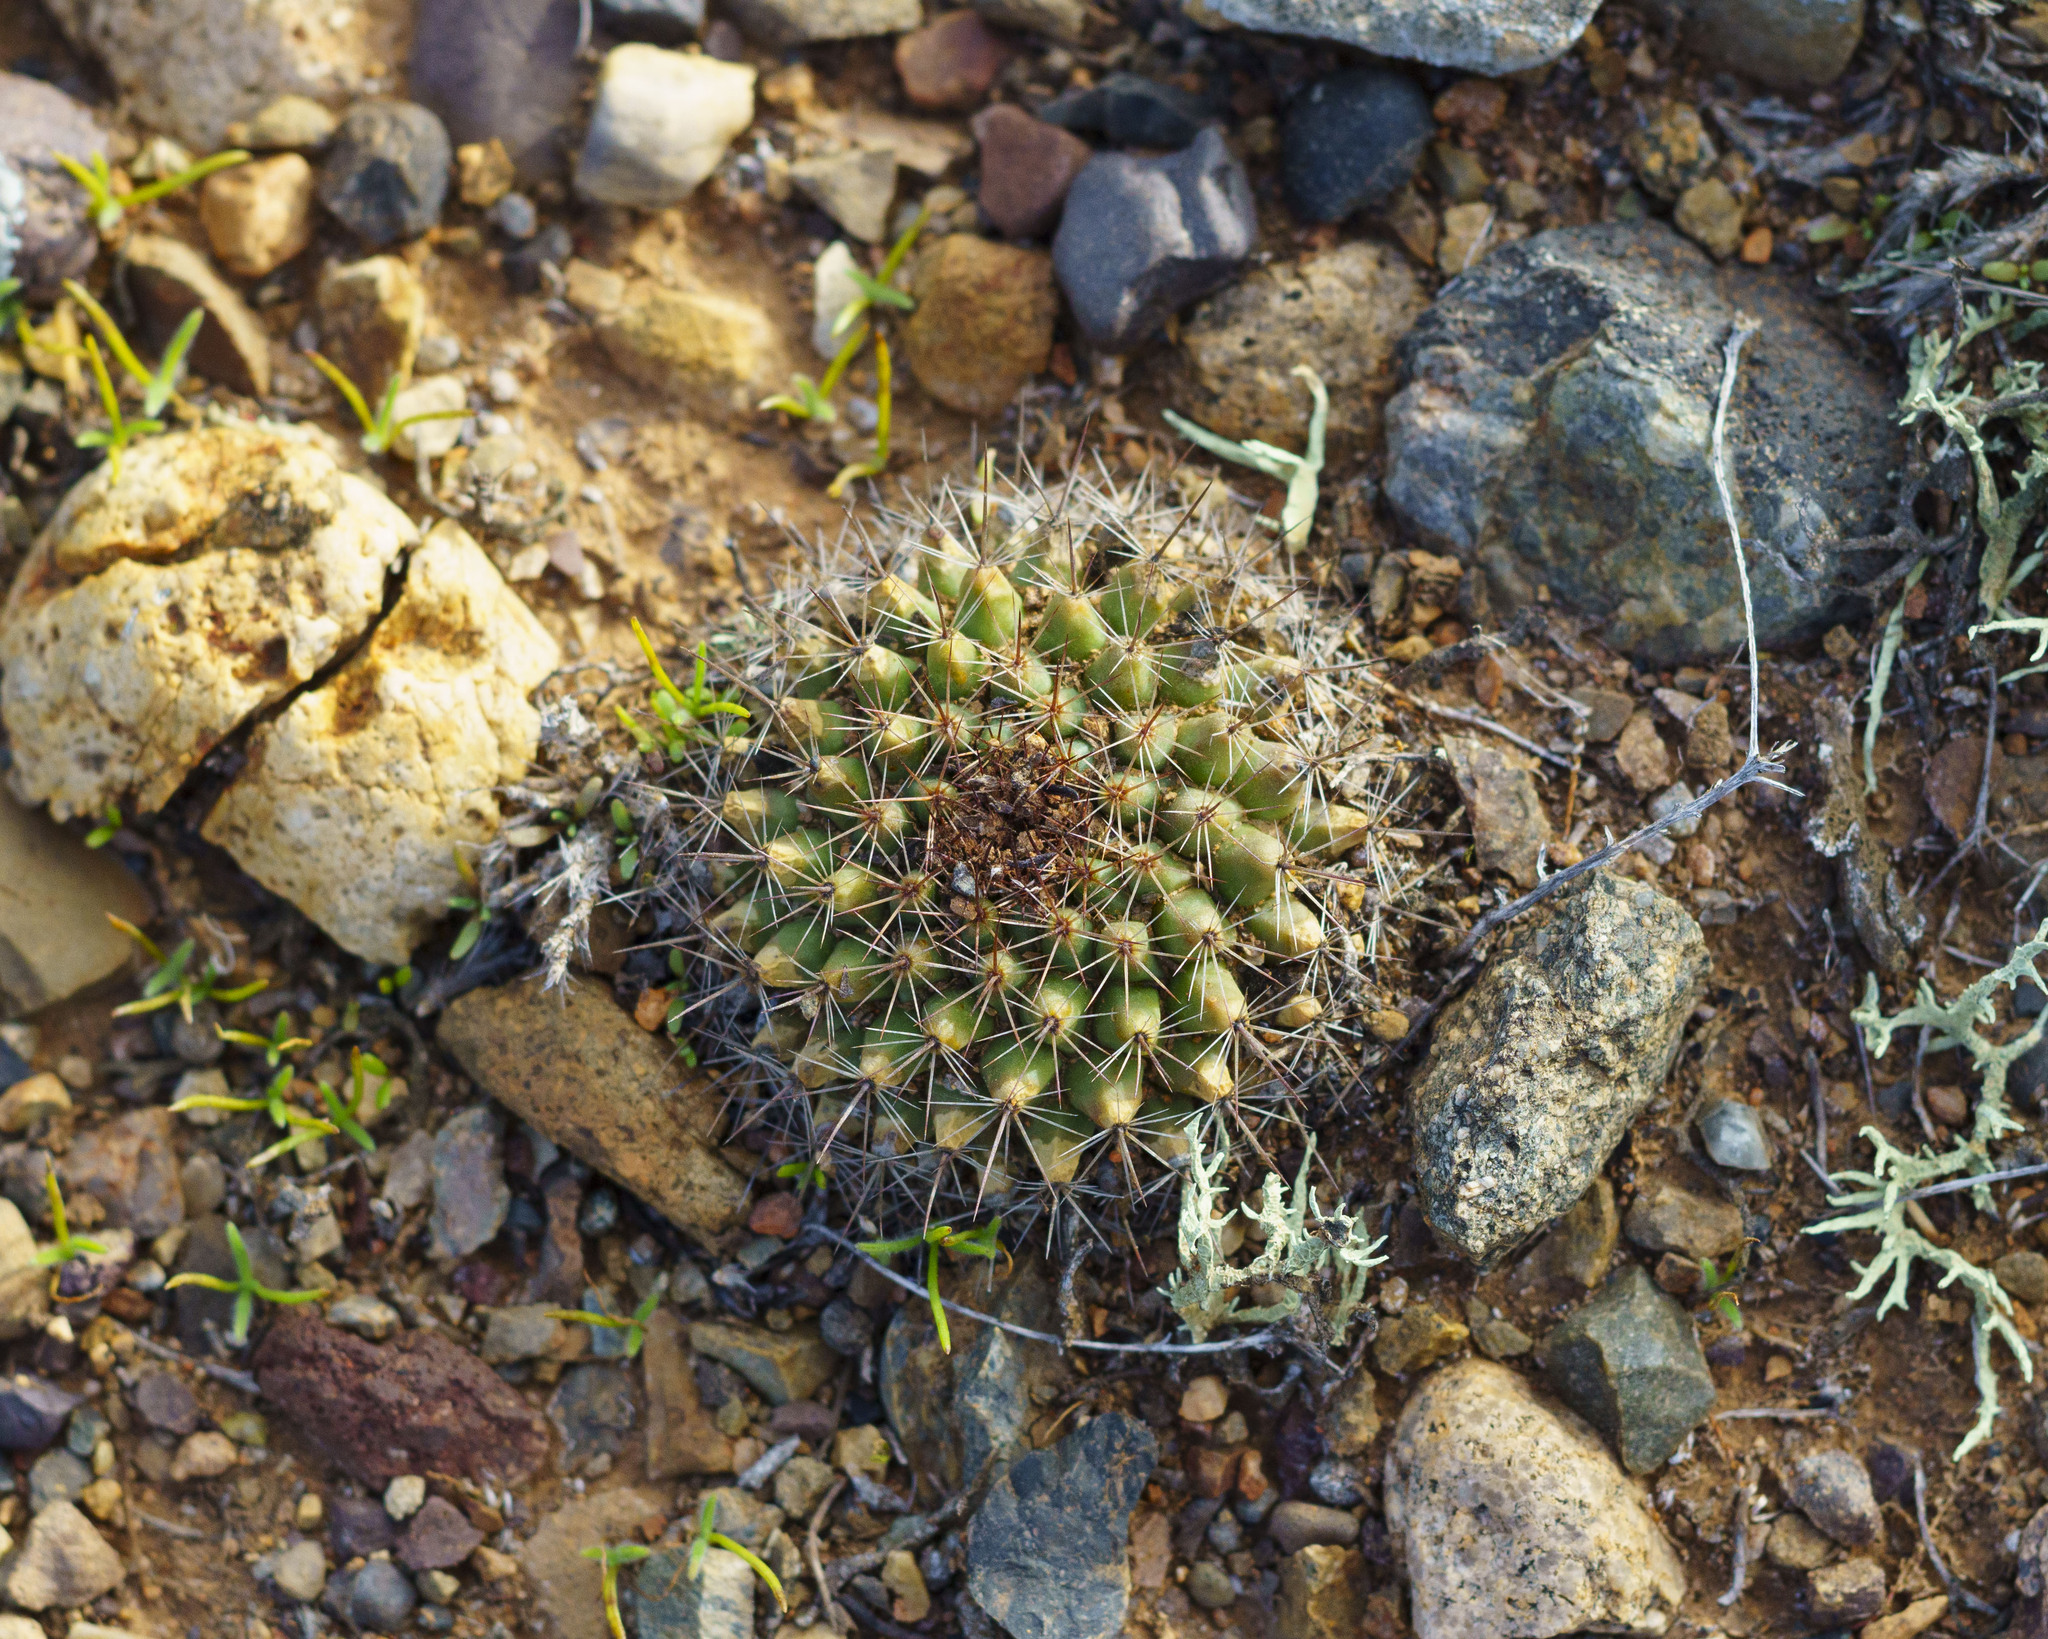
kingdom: Plantae
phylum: Tracheophyta
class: Magnoliopsida
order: Caryophyllales
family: Cactaceae
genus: Mammillaria
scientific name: Mammillaria brandegeei
